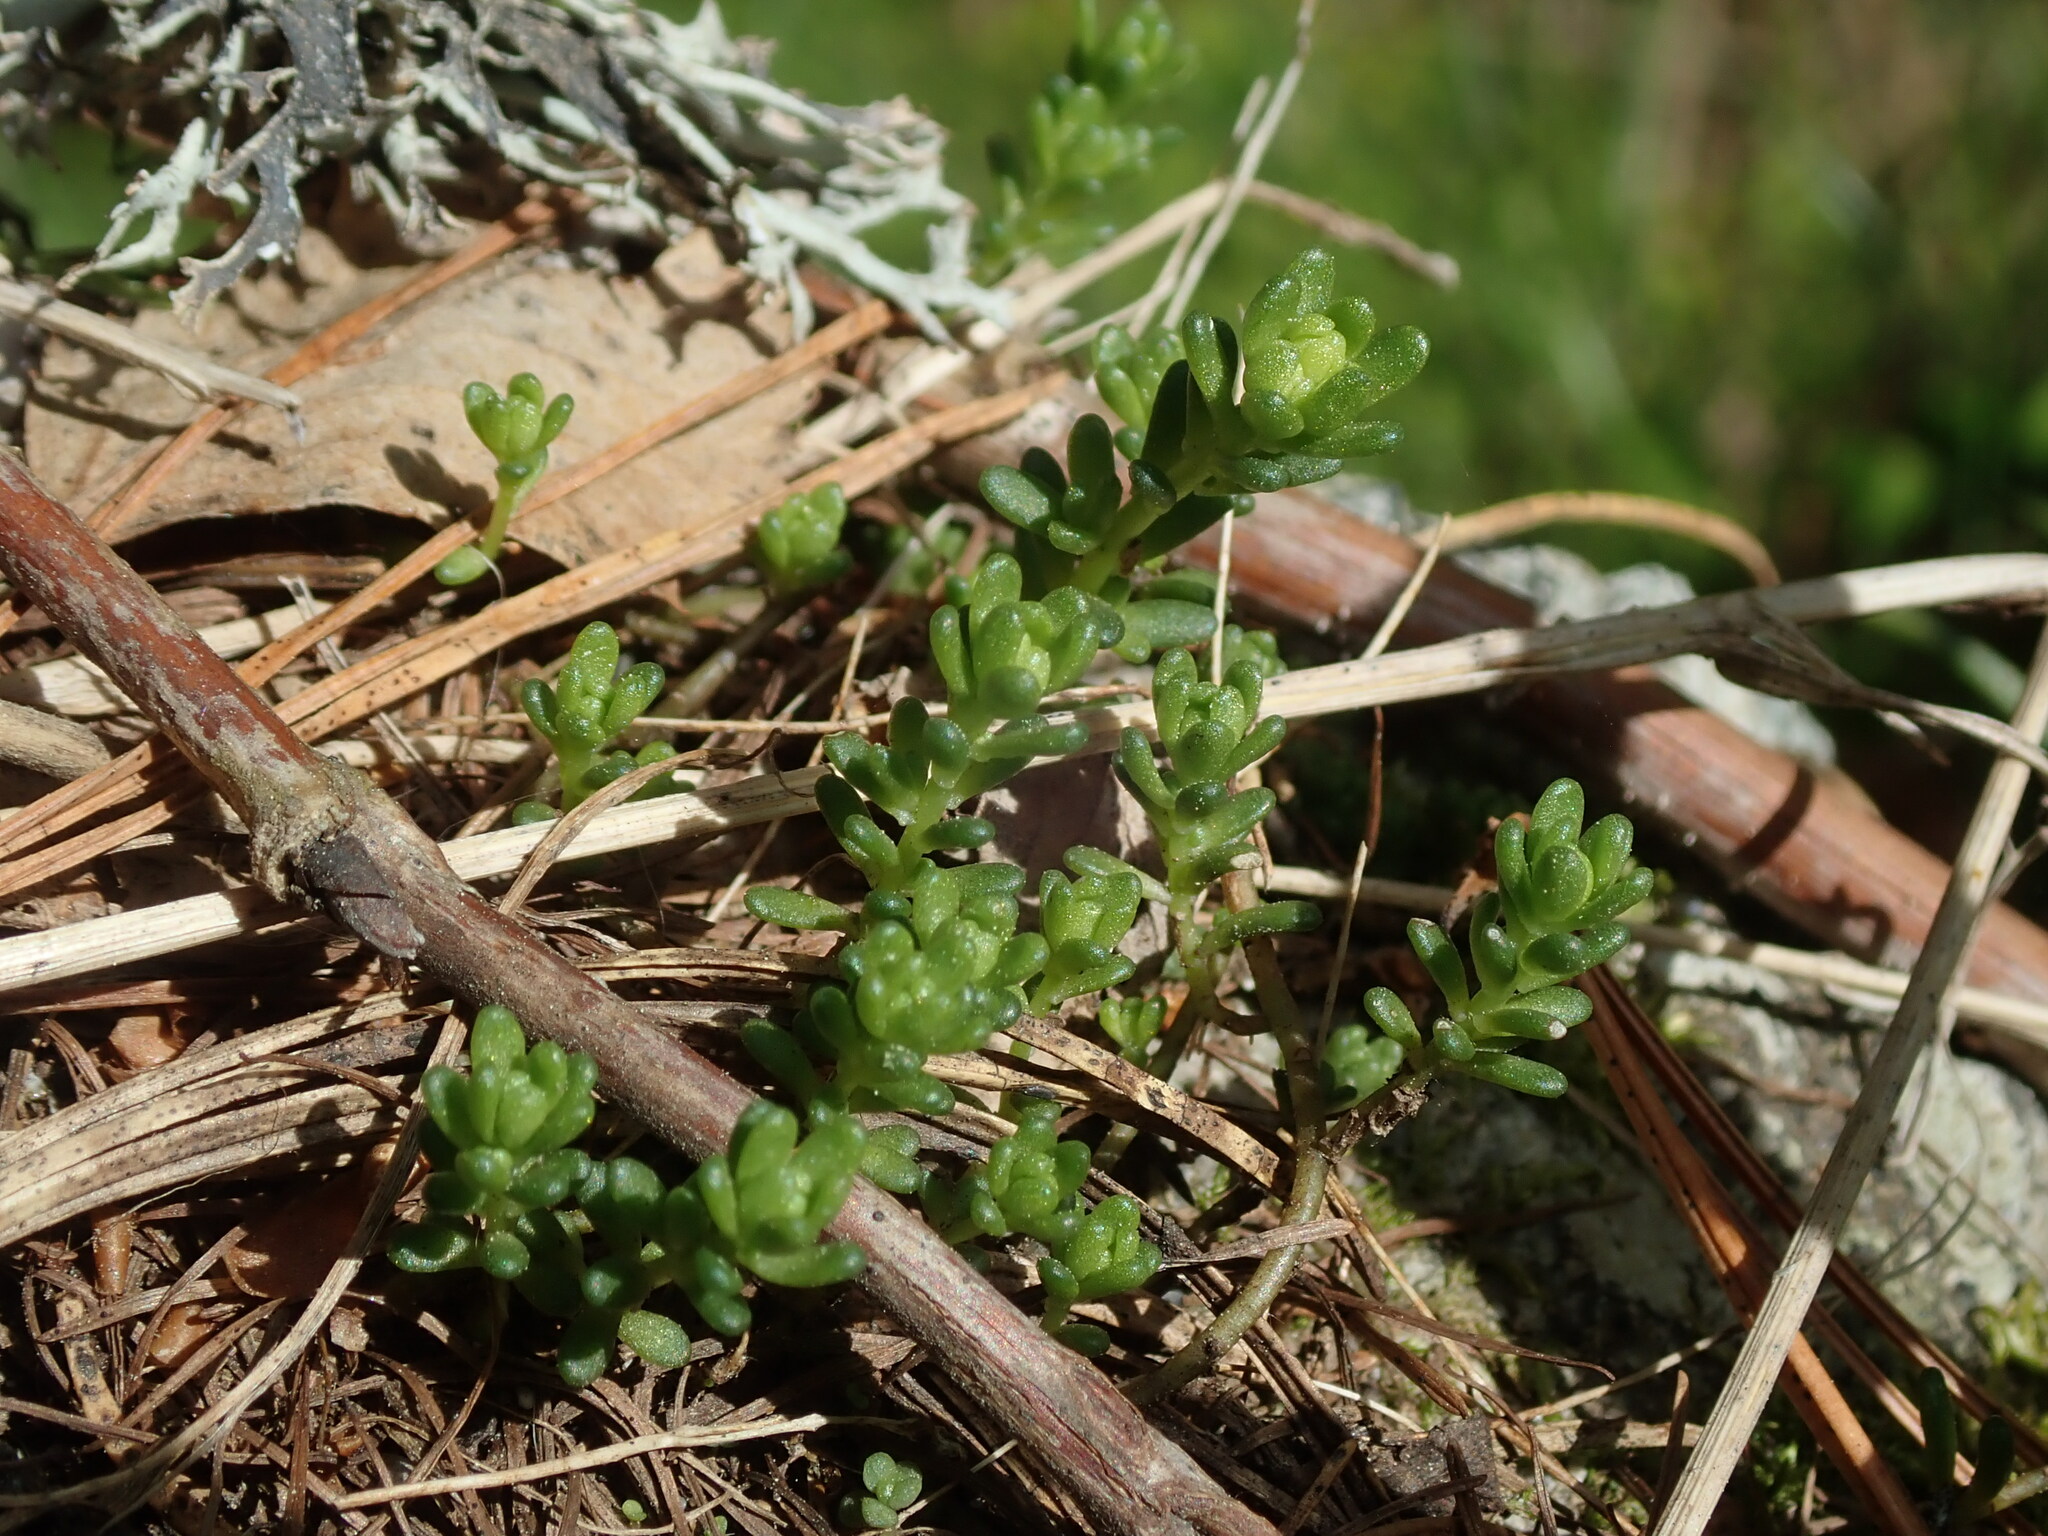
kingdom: Plantae
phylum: Tracheophyta
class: Magnoliopsida
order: Saxifragales
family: Crassulaceae
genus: Sedum
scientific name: Sedum alpestre
